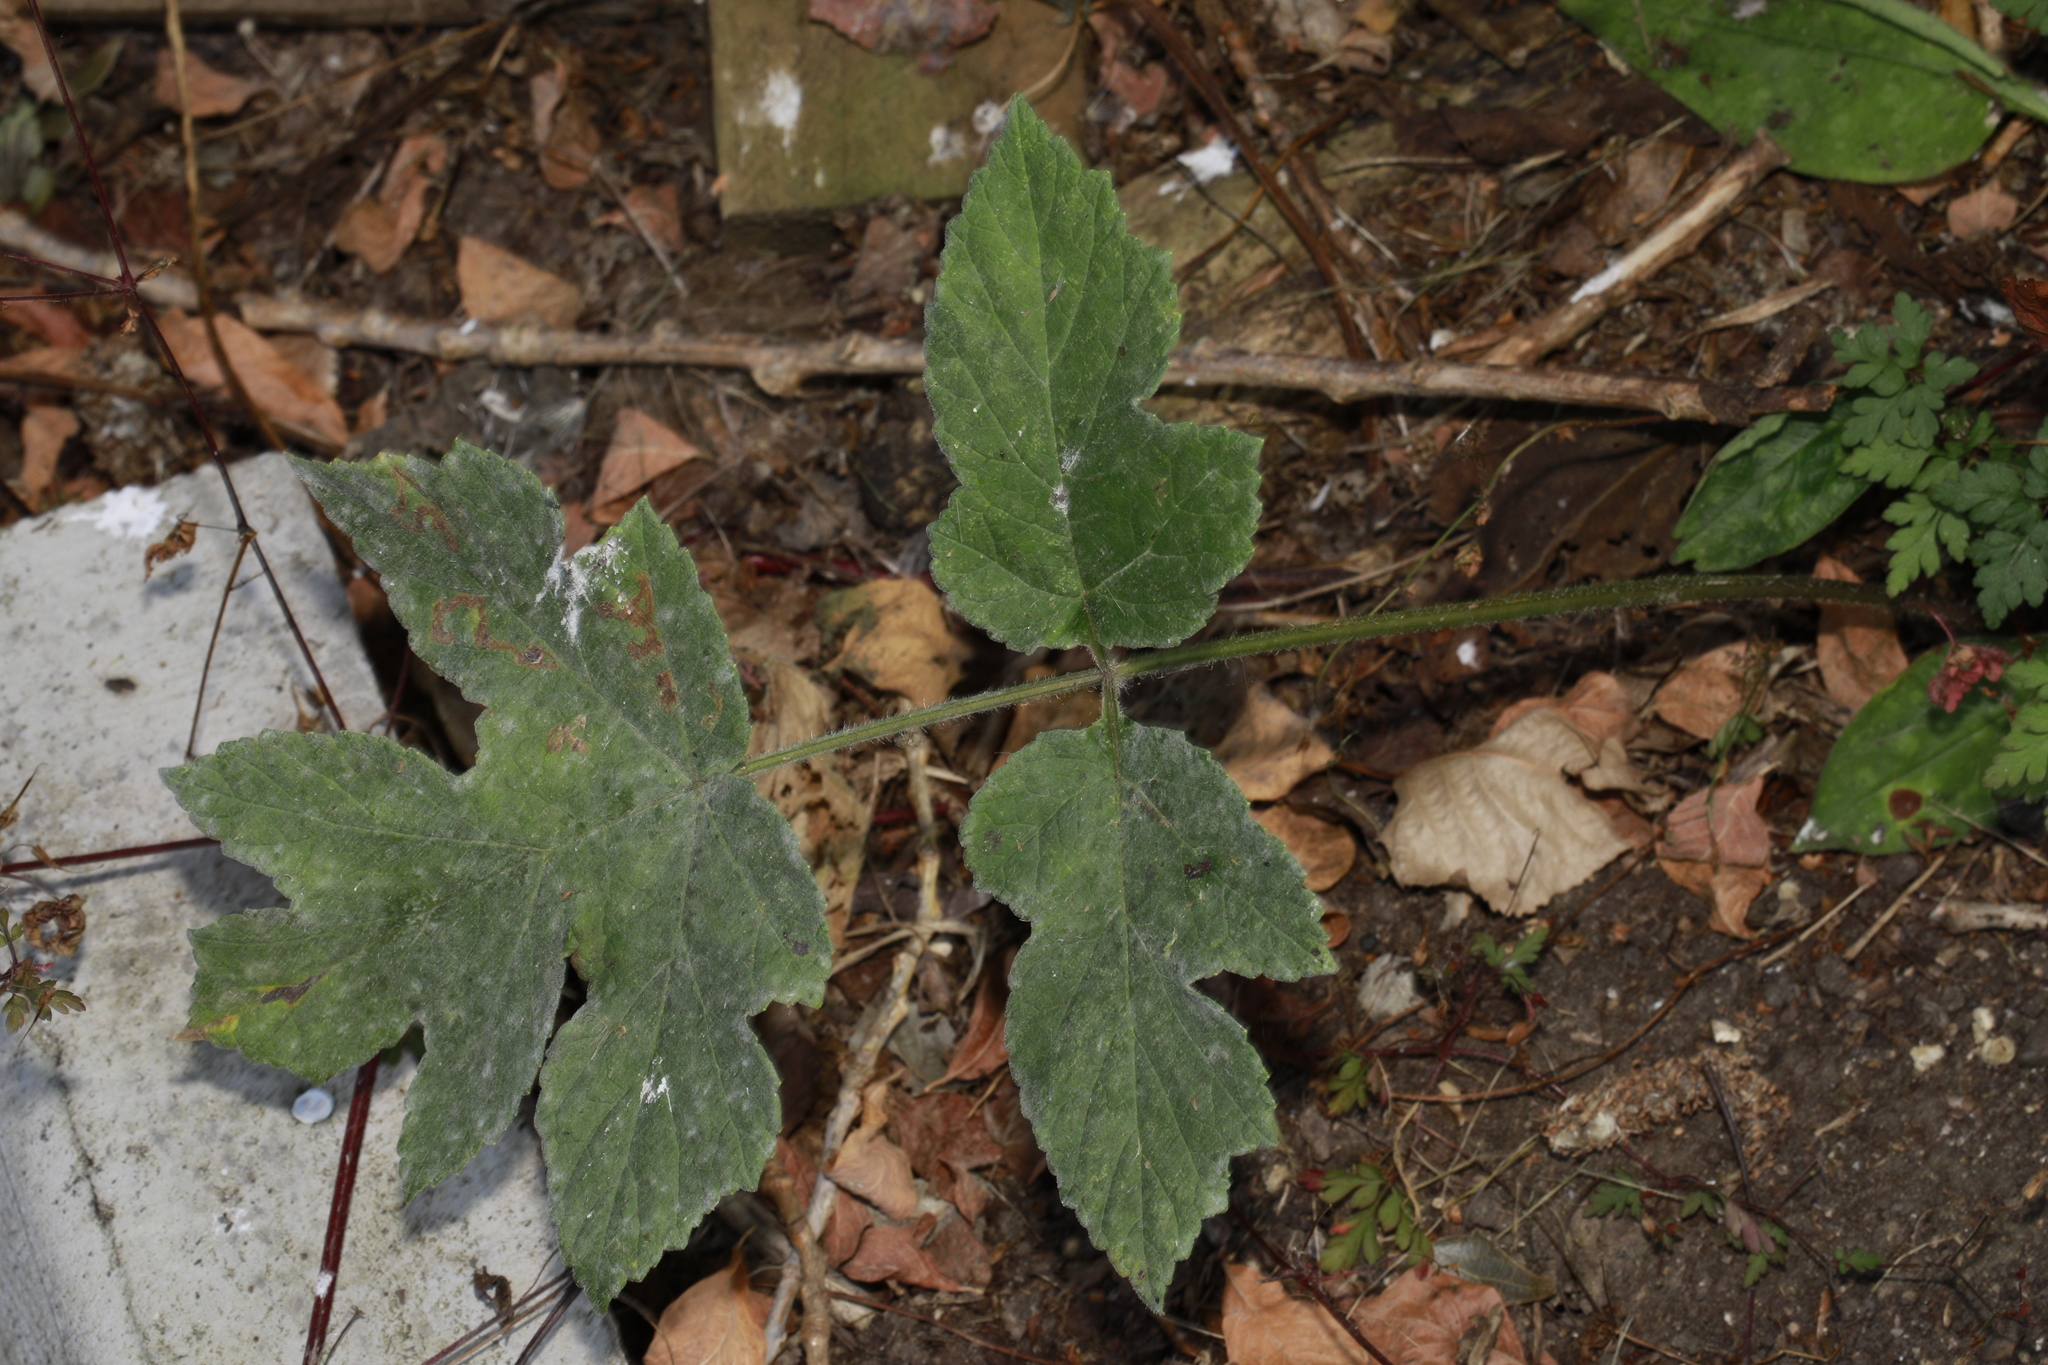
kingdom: Plantae
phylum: Tracheophyta
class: Magnoliopsida
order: Apiales
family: Apiaceae
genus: Heracleum
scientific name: Heracleum sphondylium
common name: Hogweed
